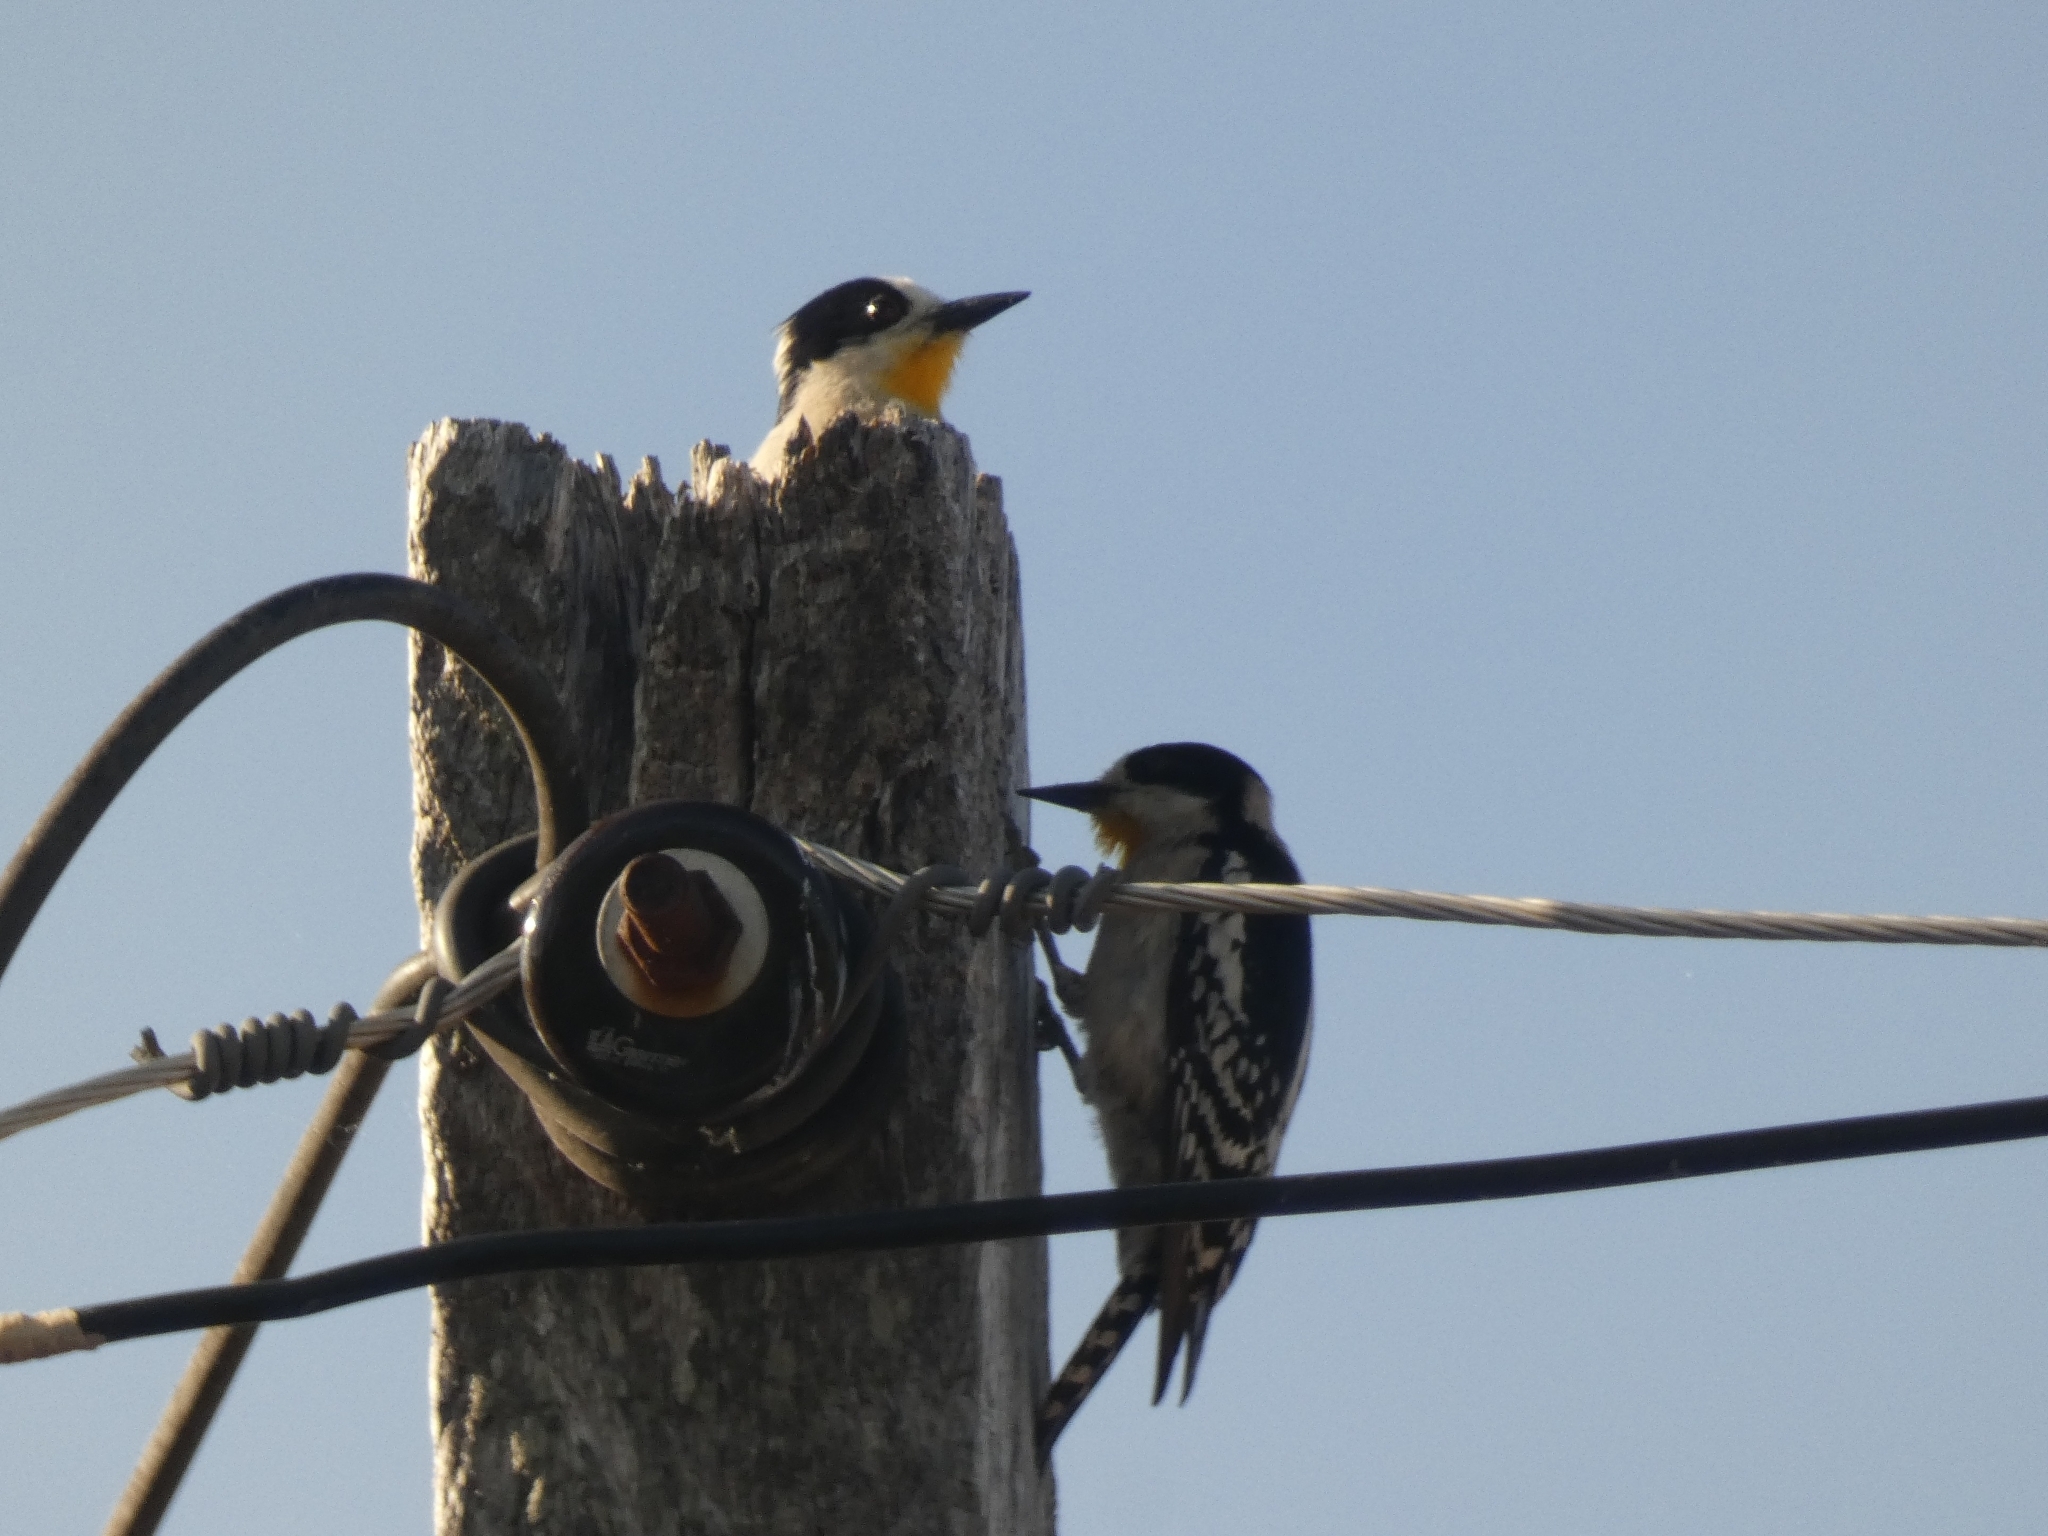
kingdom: Animalia
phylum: Chordata
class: Aves
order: Piciformes
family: Picidae
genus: Melanerpes
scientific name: Melanerpes cactorum
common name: White-fronted woodpecker
